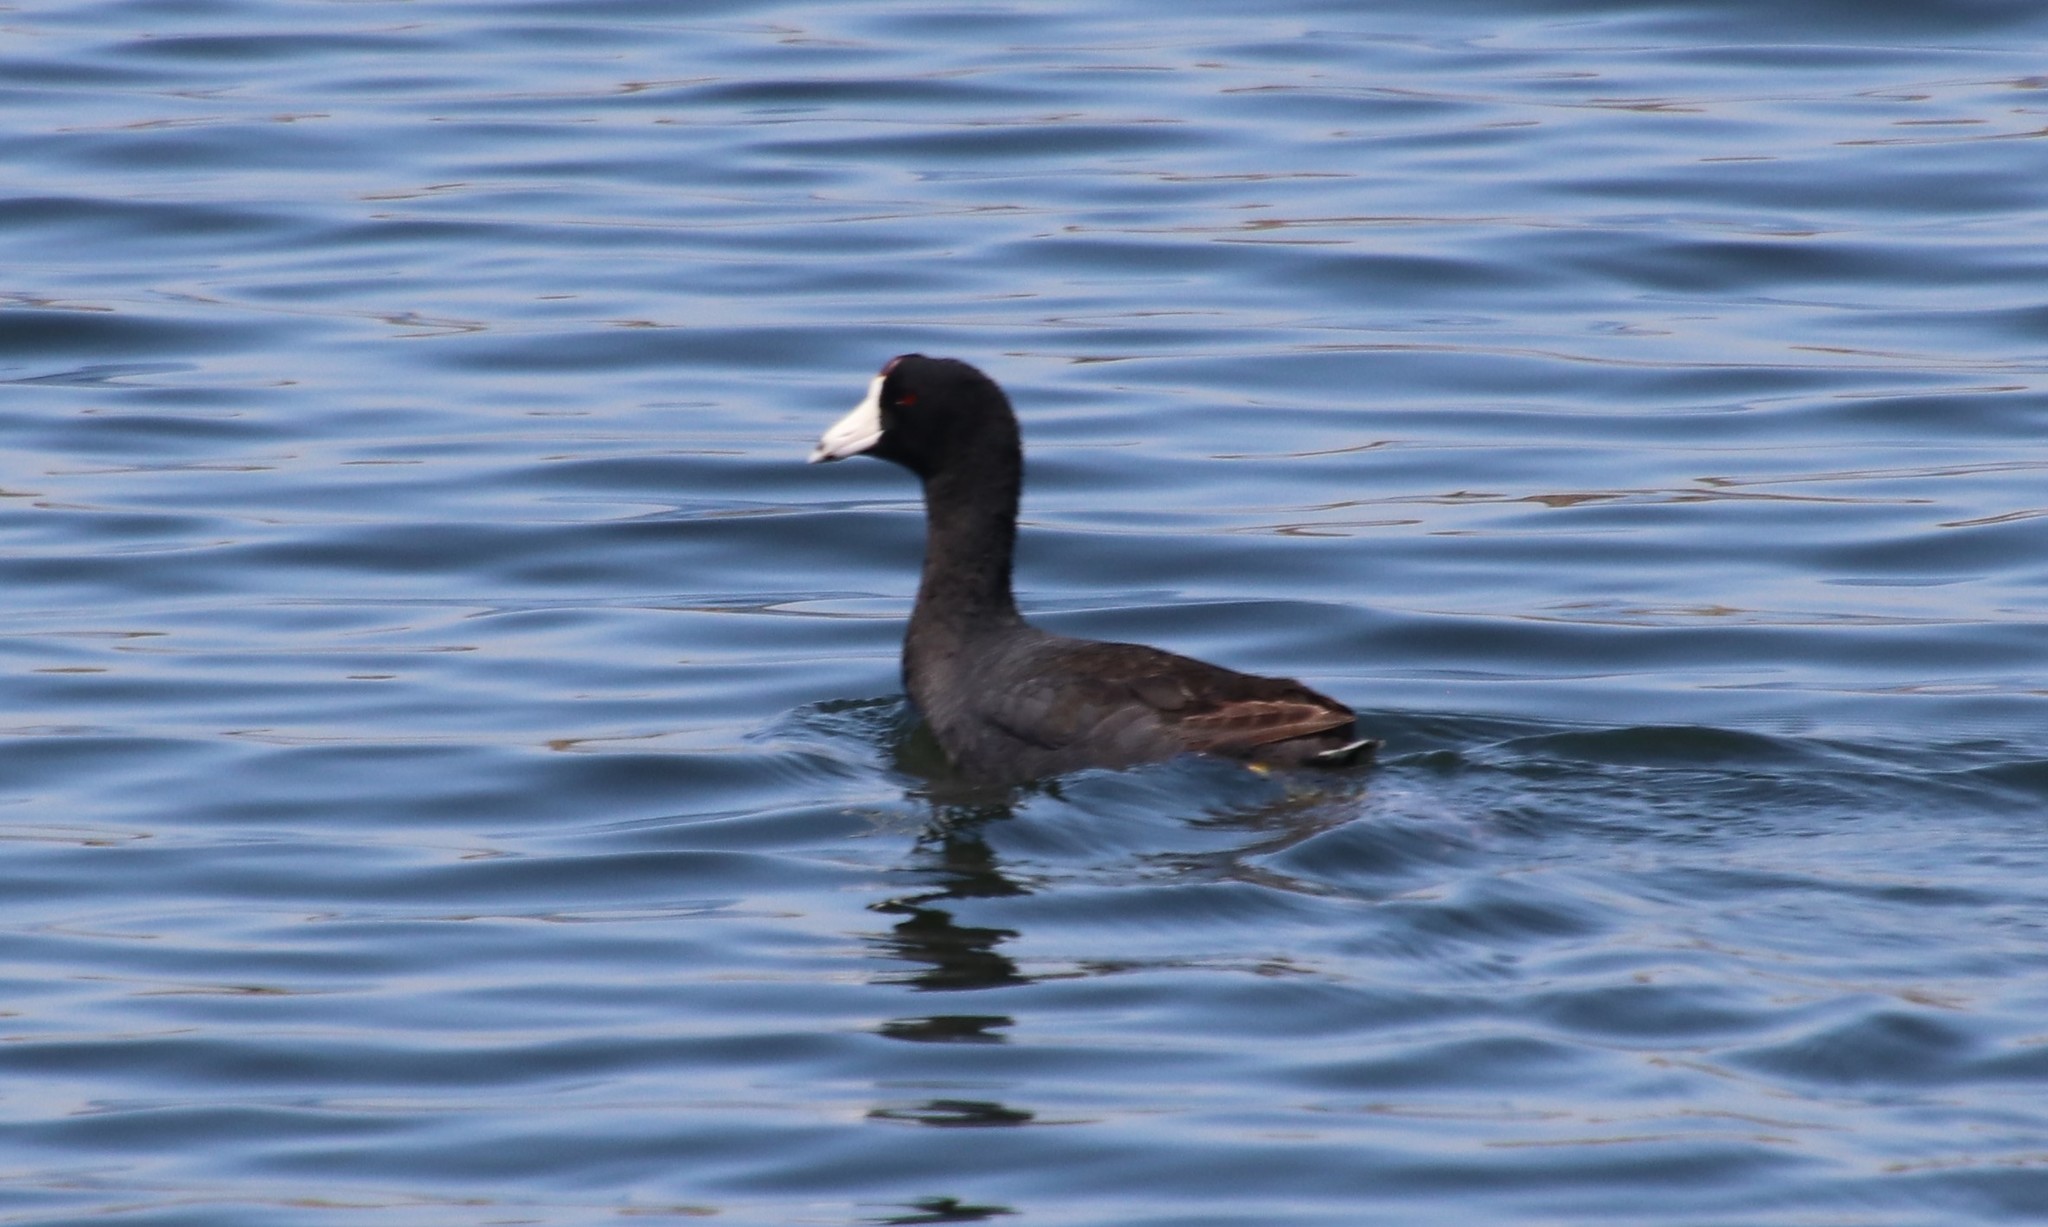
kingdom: Animalia
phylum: Chordata
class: Aves
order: Gruiformes
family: Rallidae
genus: Fulica
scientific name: Fulica americana
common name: American coot
